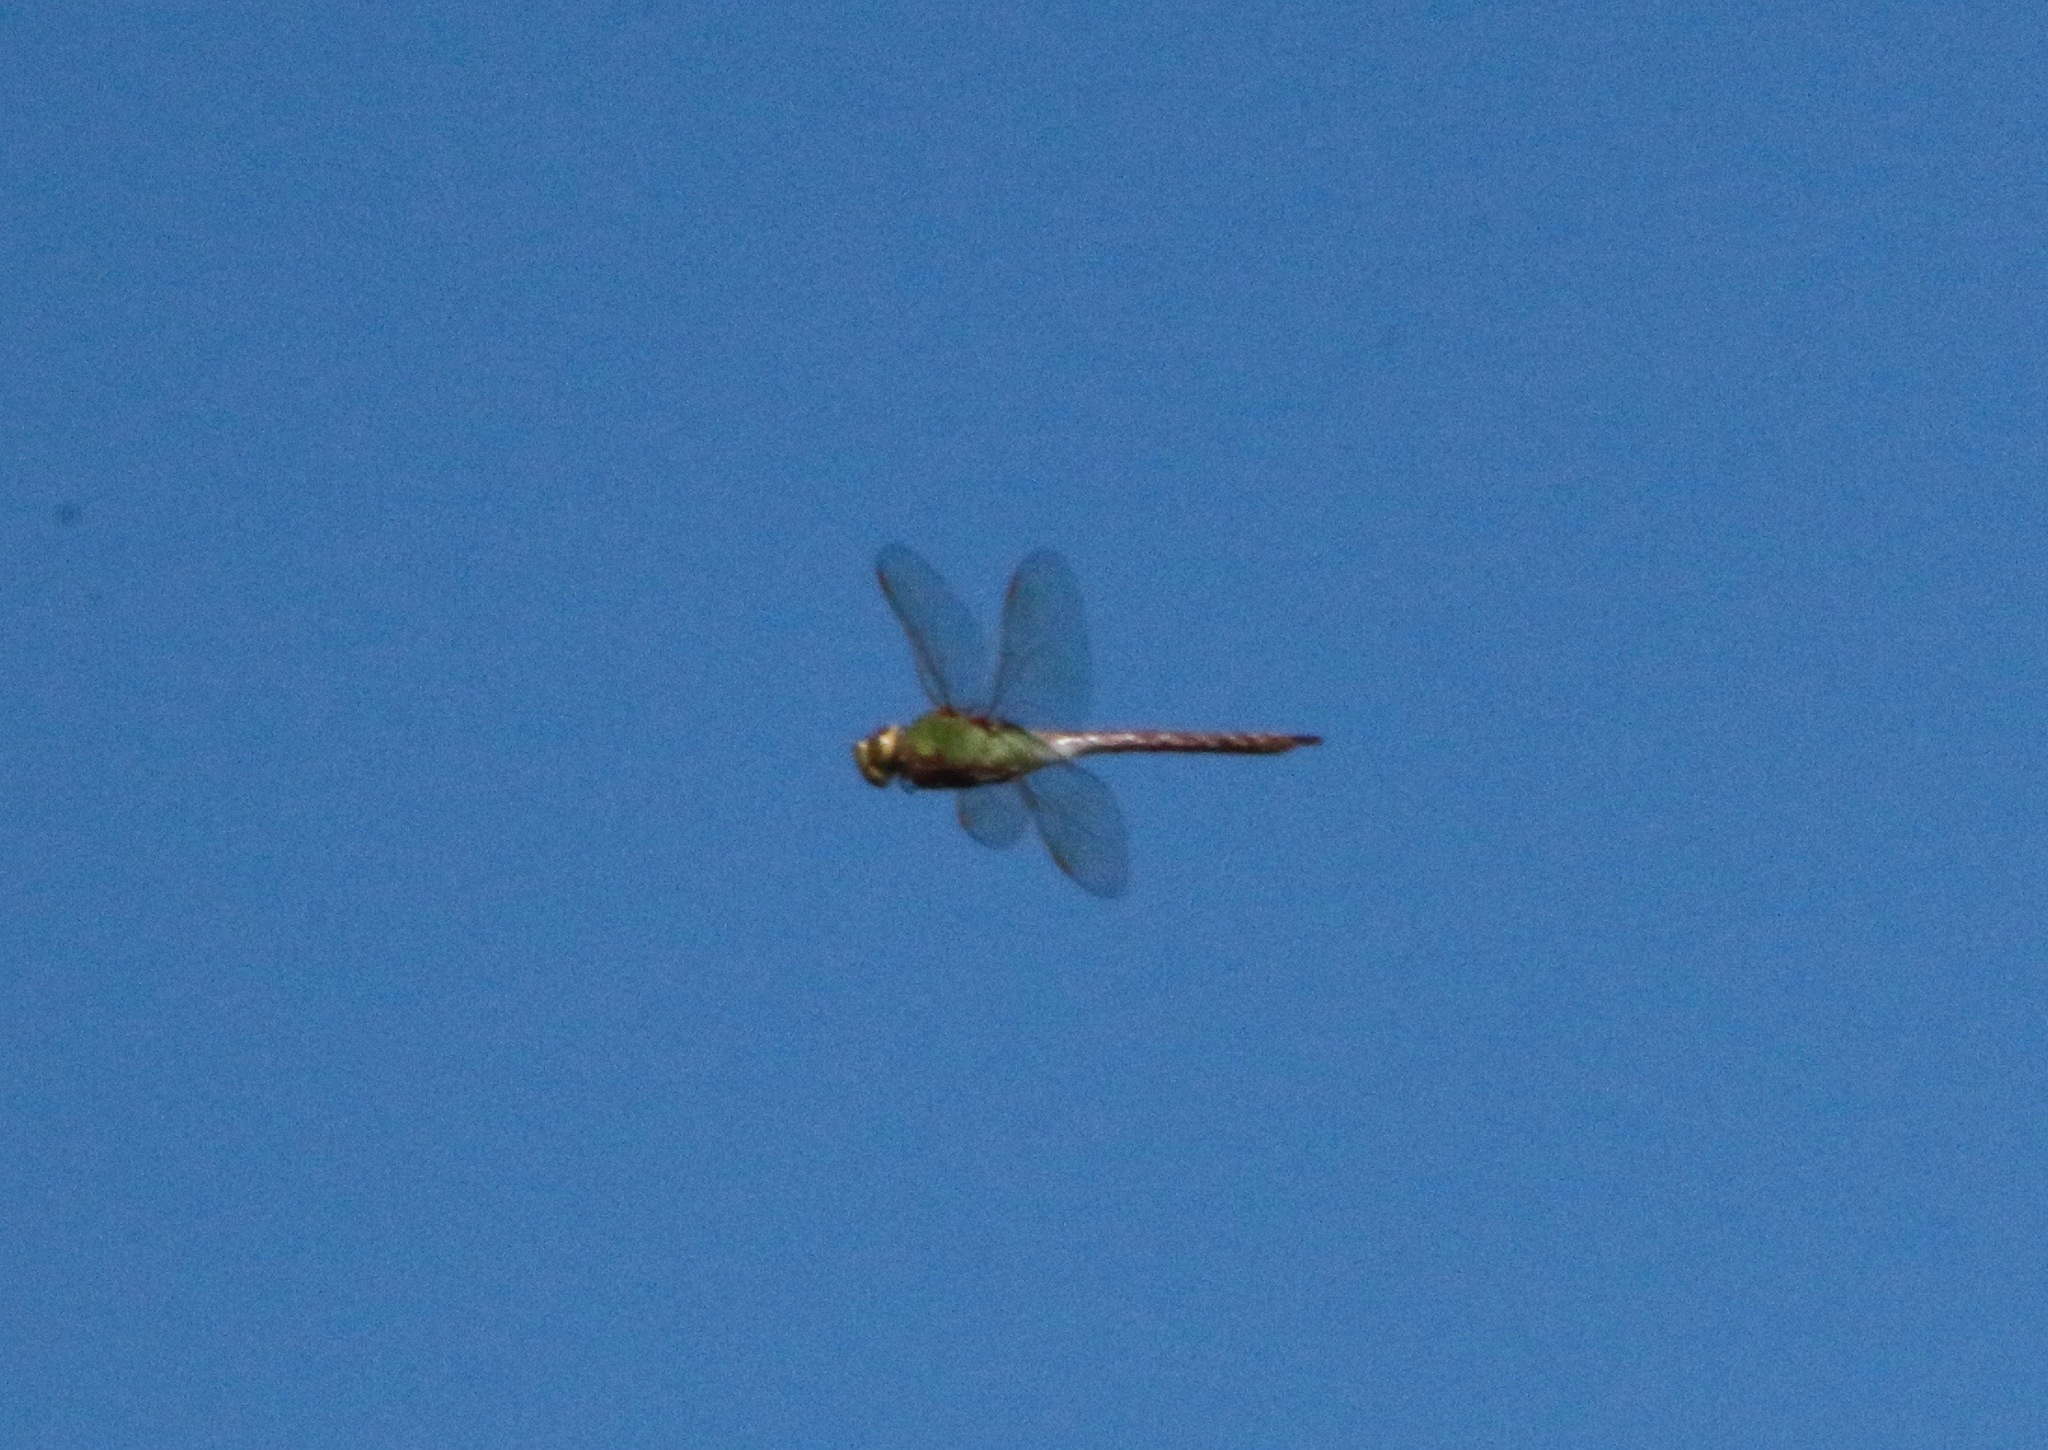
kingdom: Animalia
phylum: Arthropoda
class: Insecta
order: Odonata
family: Aeshnidae
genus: Anax
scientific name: Anax junius
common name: Common green darner
